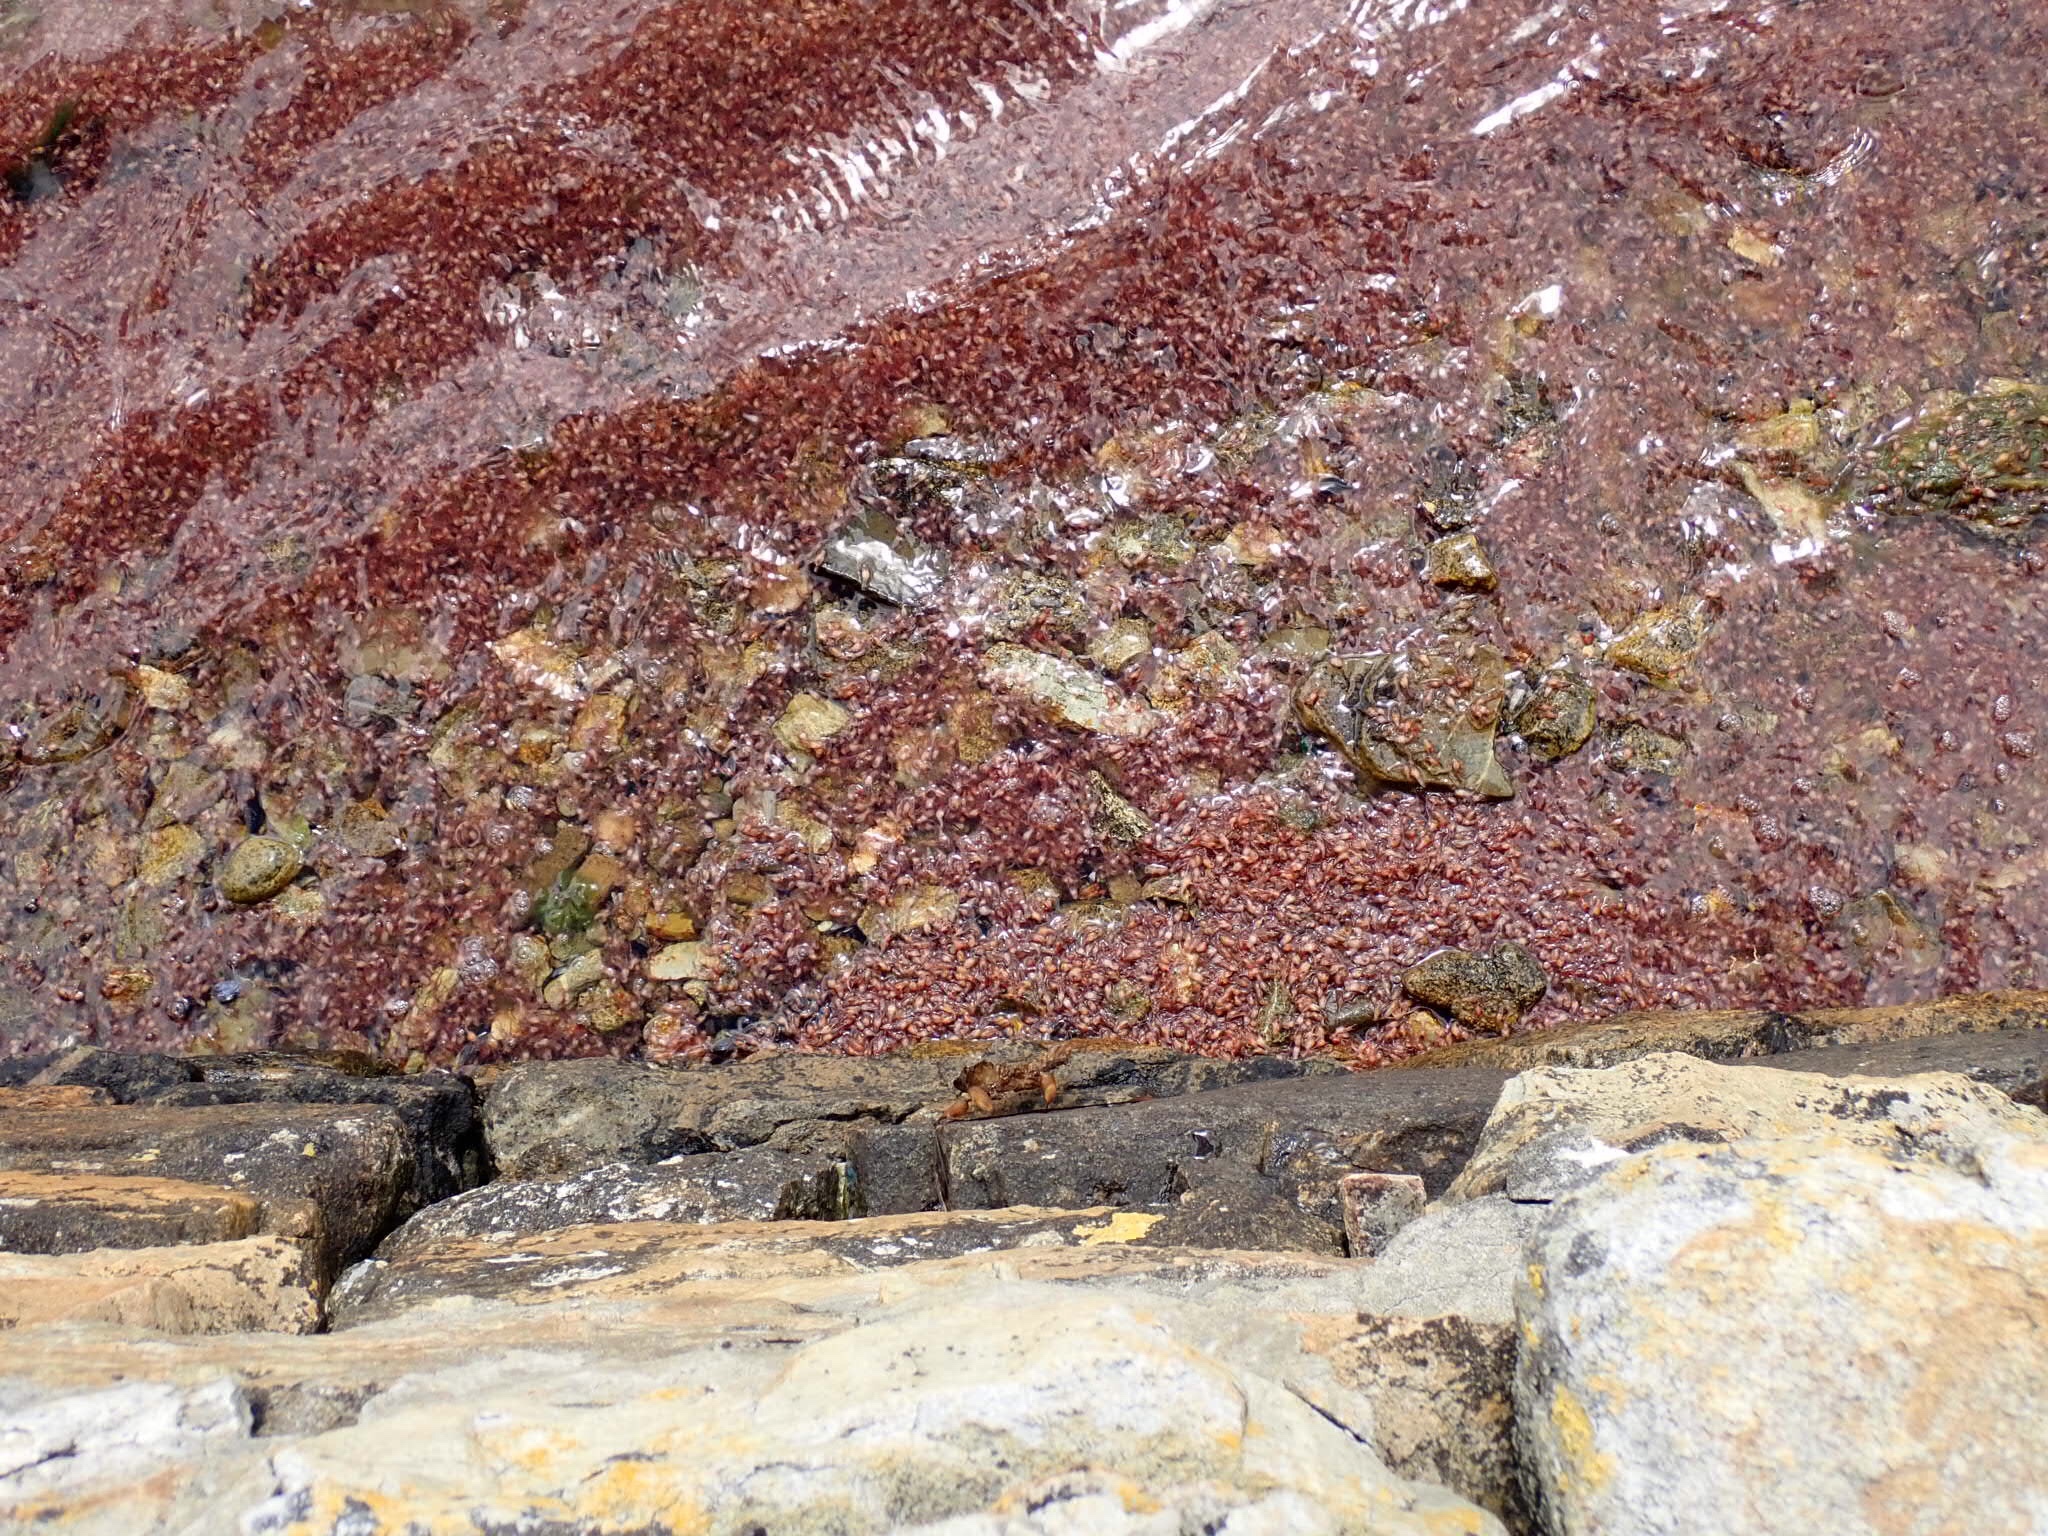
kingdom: Animalia
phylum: Arthropoda
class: Malacostraca
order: Decapoda
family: Munididae
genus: Grimothea
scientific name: Grimothea gregaria
